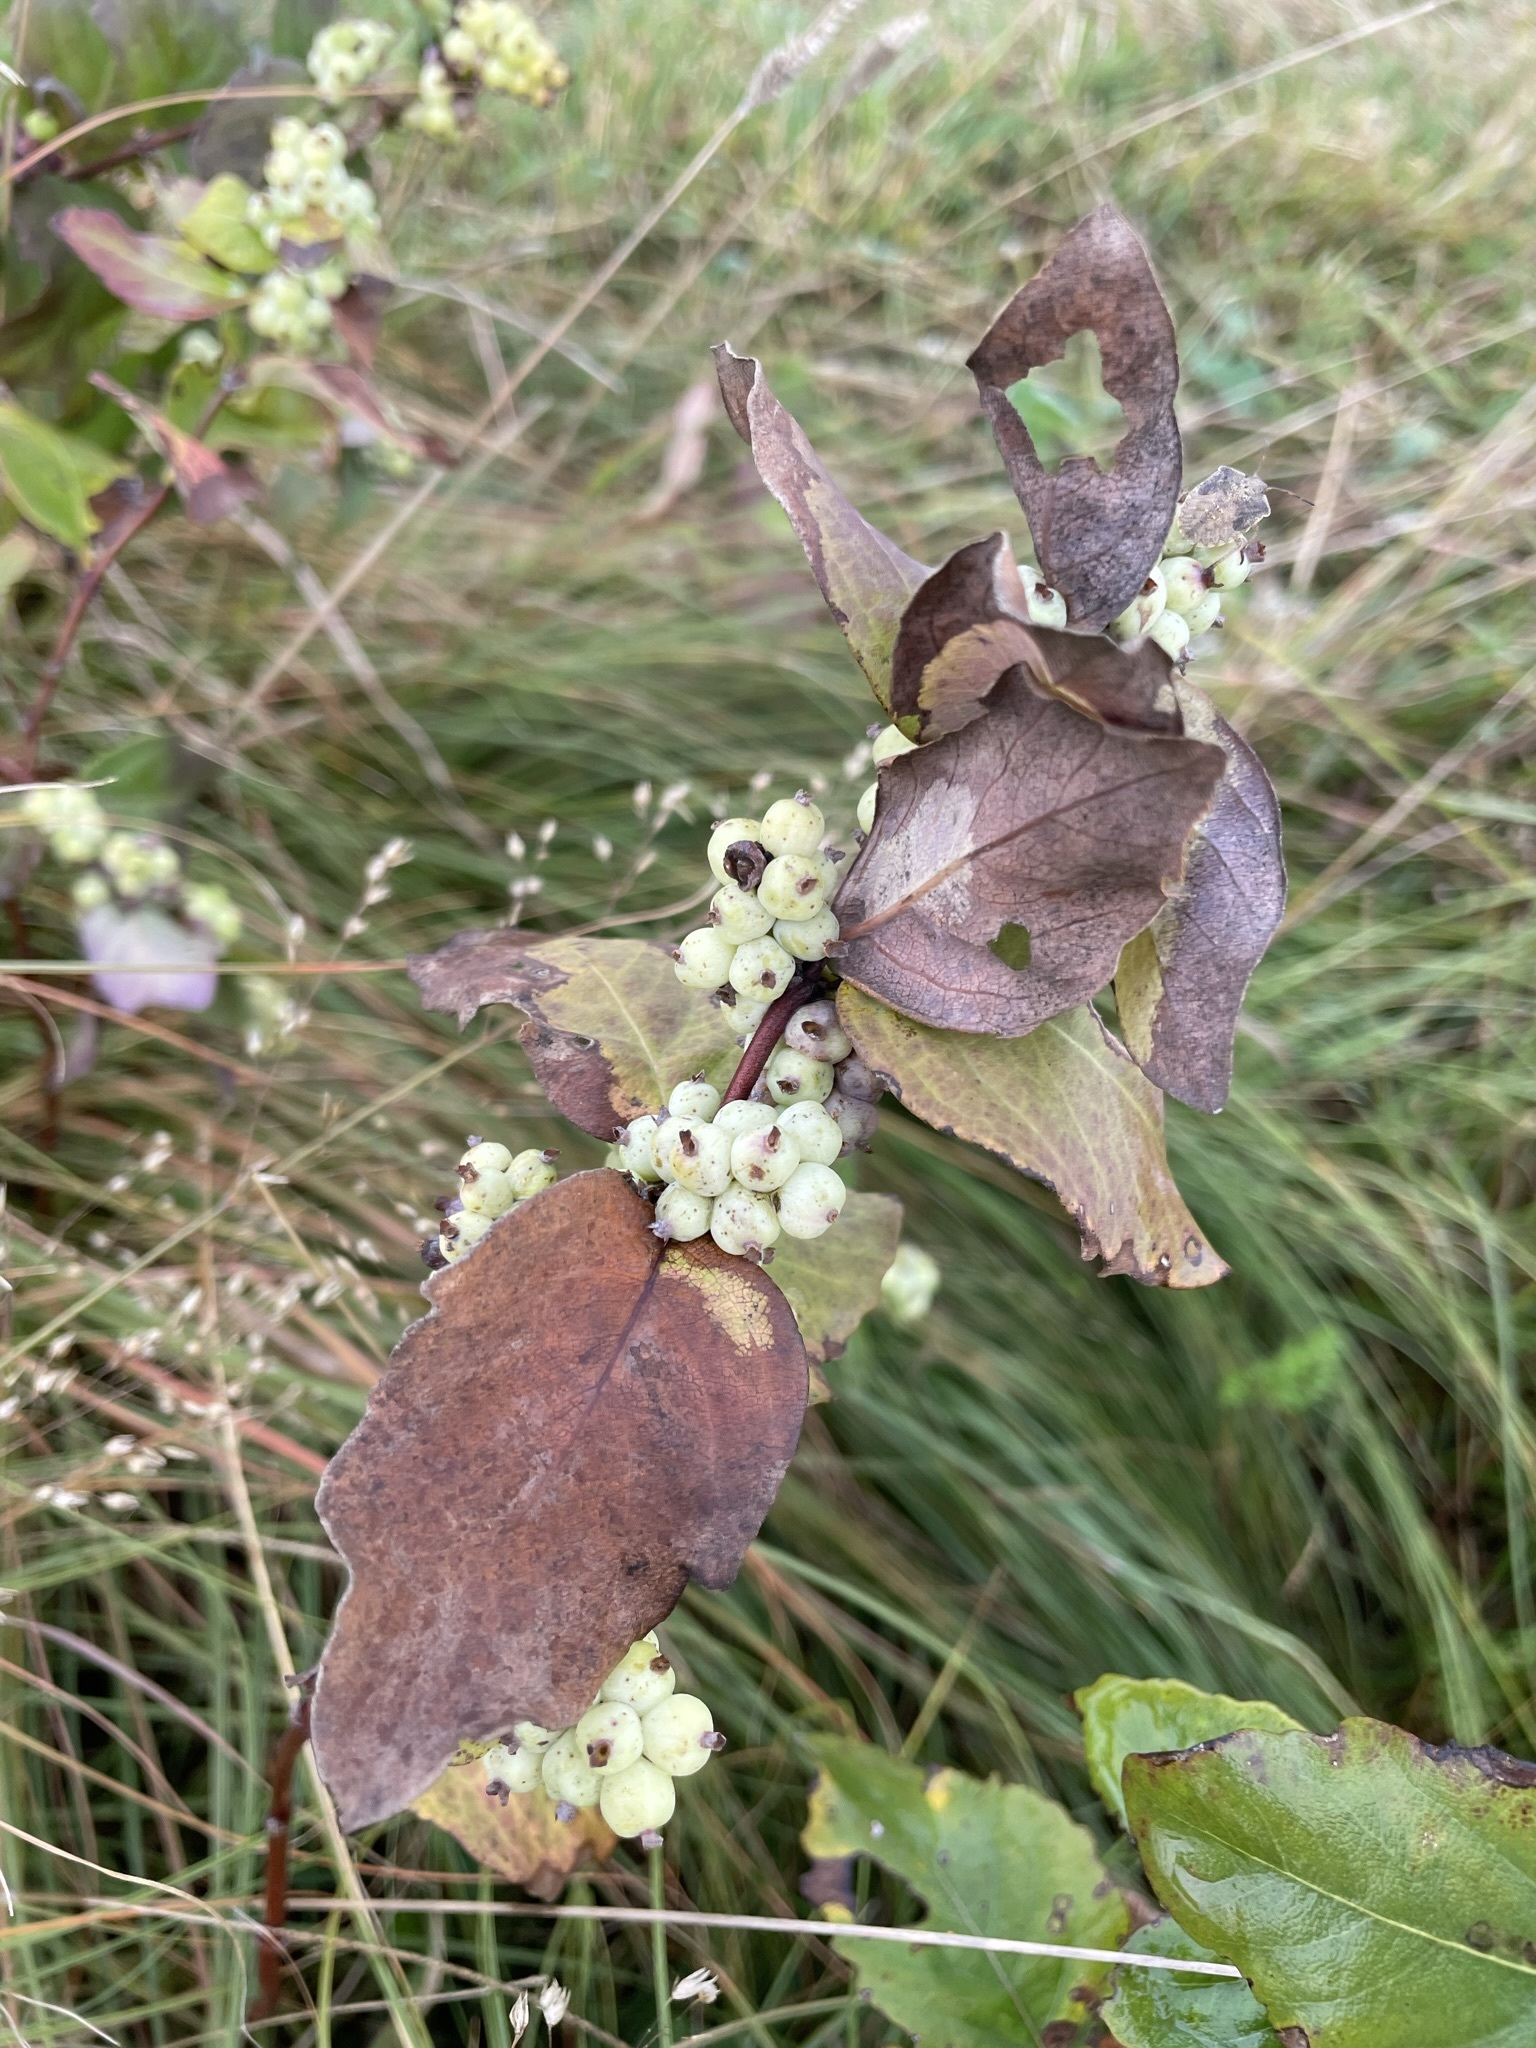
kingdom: Plantae
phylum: Tracheophyta
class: Magnoliopsida
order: Dipsacales
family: Caprifoliaceae
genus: Symphoricarpos
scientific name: Symphoricarpos occidentalis
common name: Wolfberry
